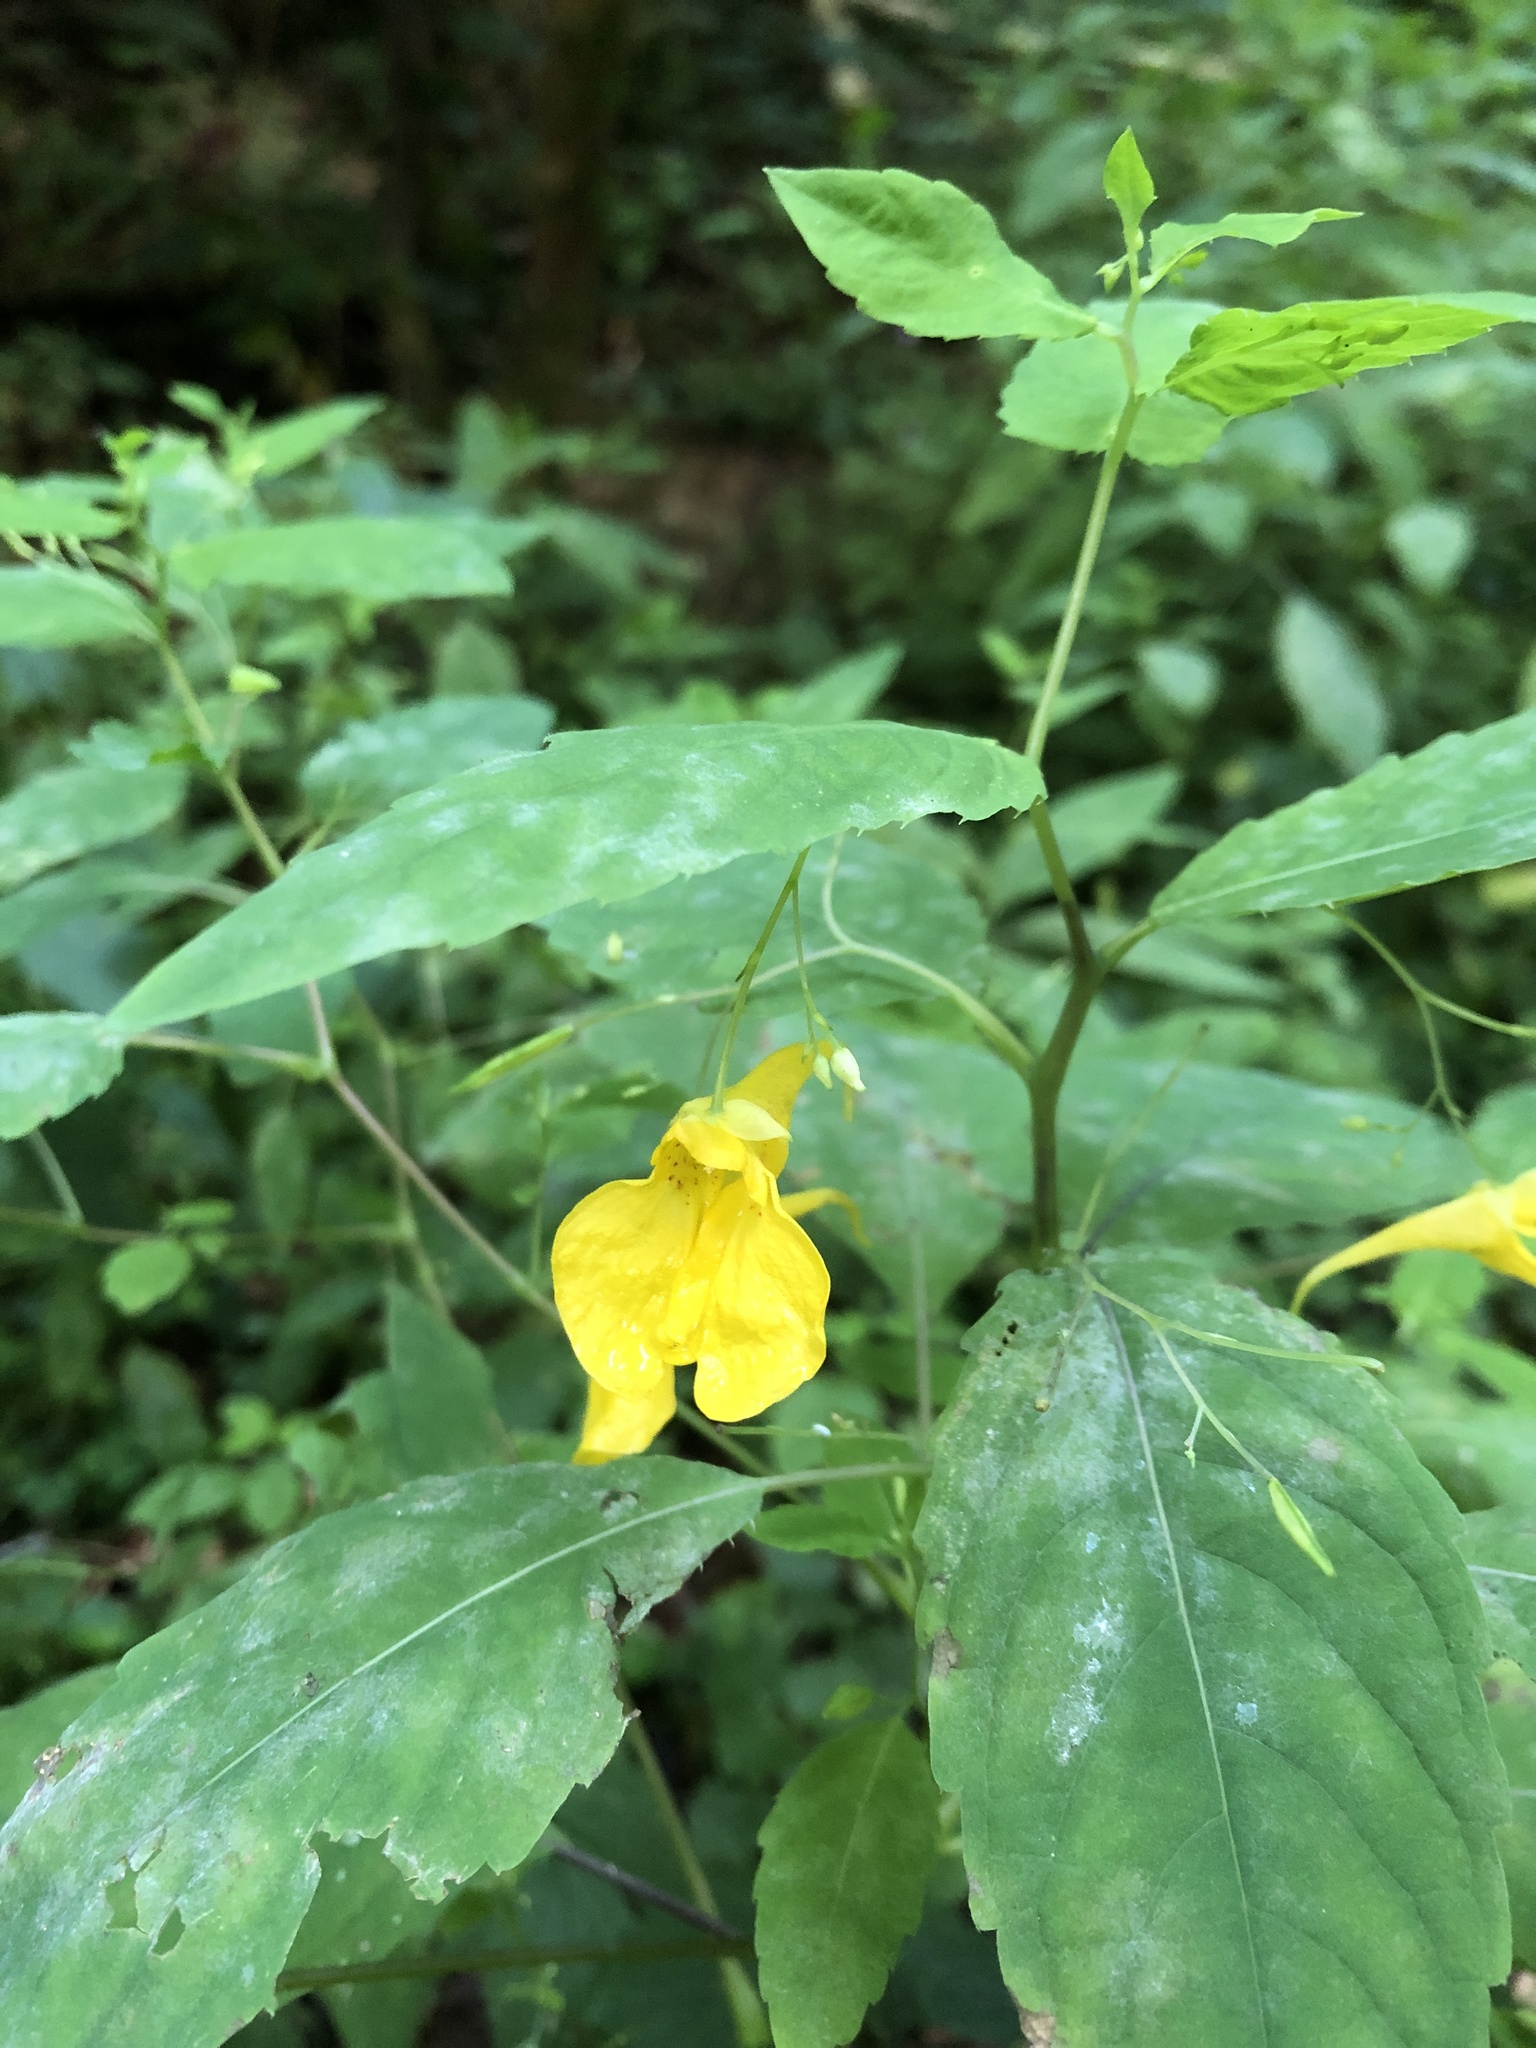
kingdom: Plantae
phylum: Tracheophyta
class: Magnoliopsida
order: Ericales
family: Balsaminaceae
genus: Impatiens
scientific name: Impatiens noli-tangere
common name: Touch-me-not balsam
